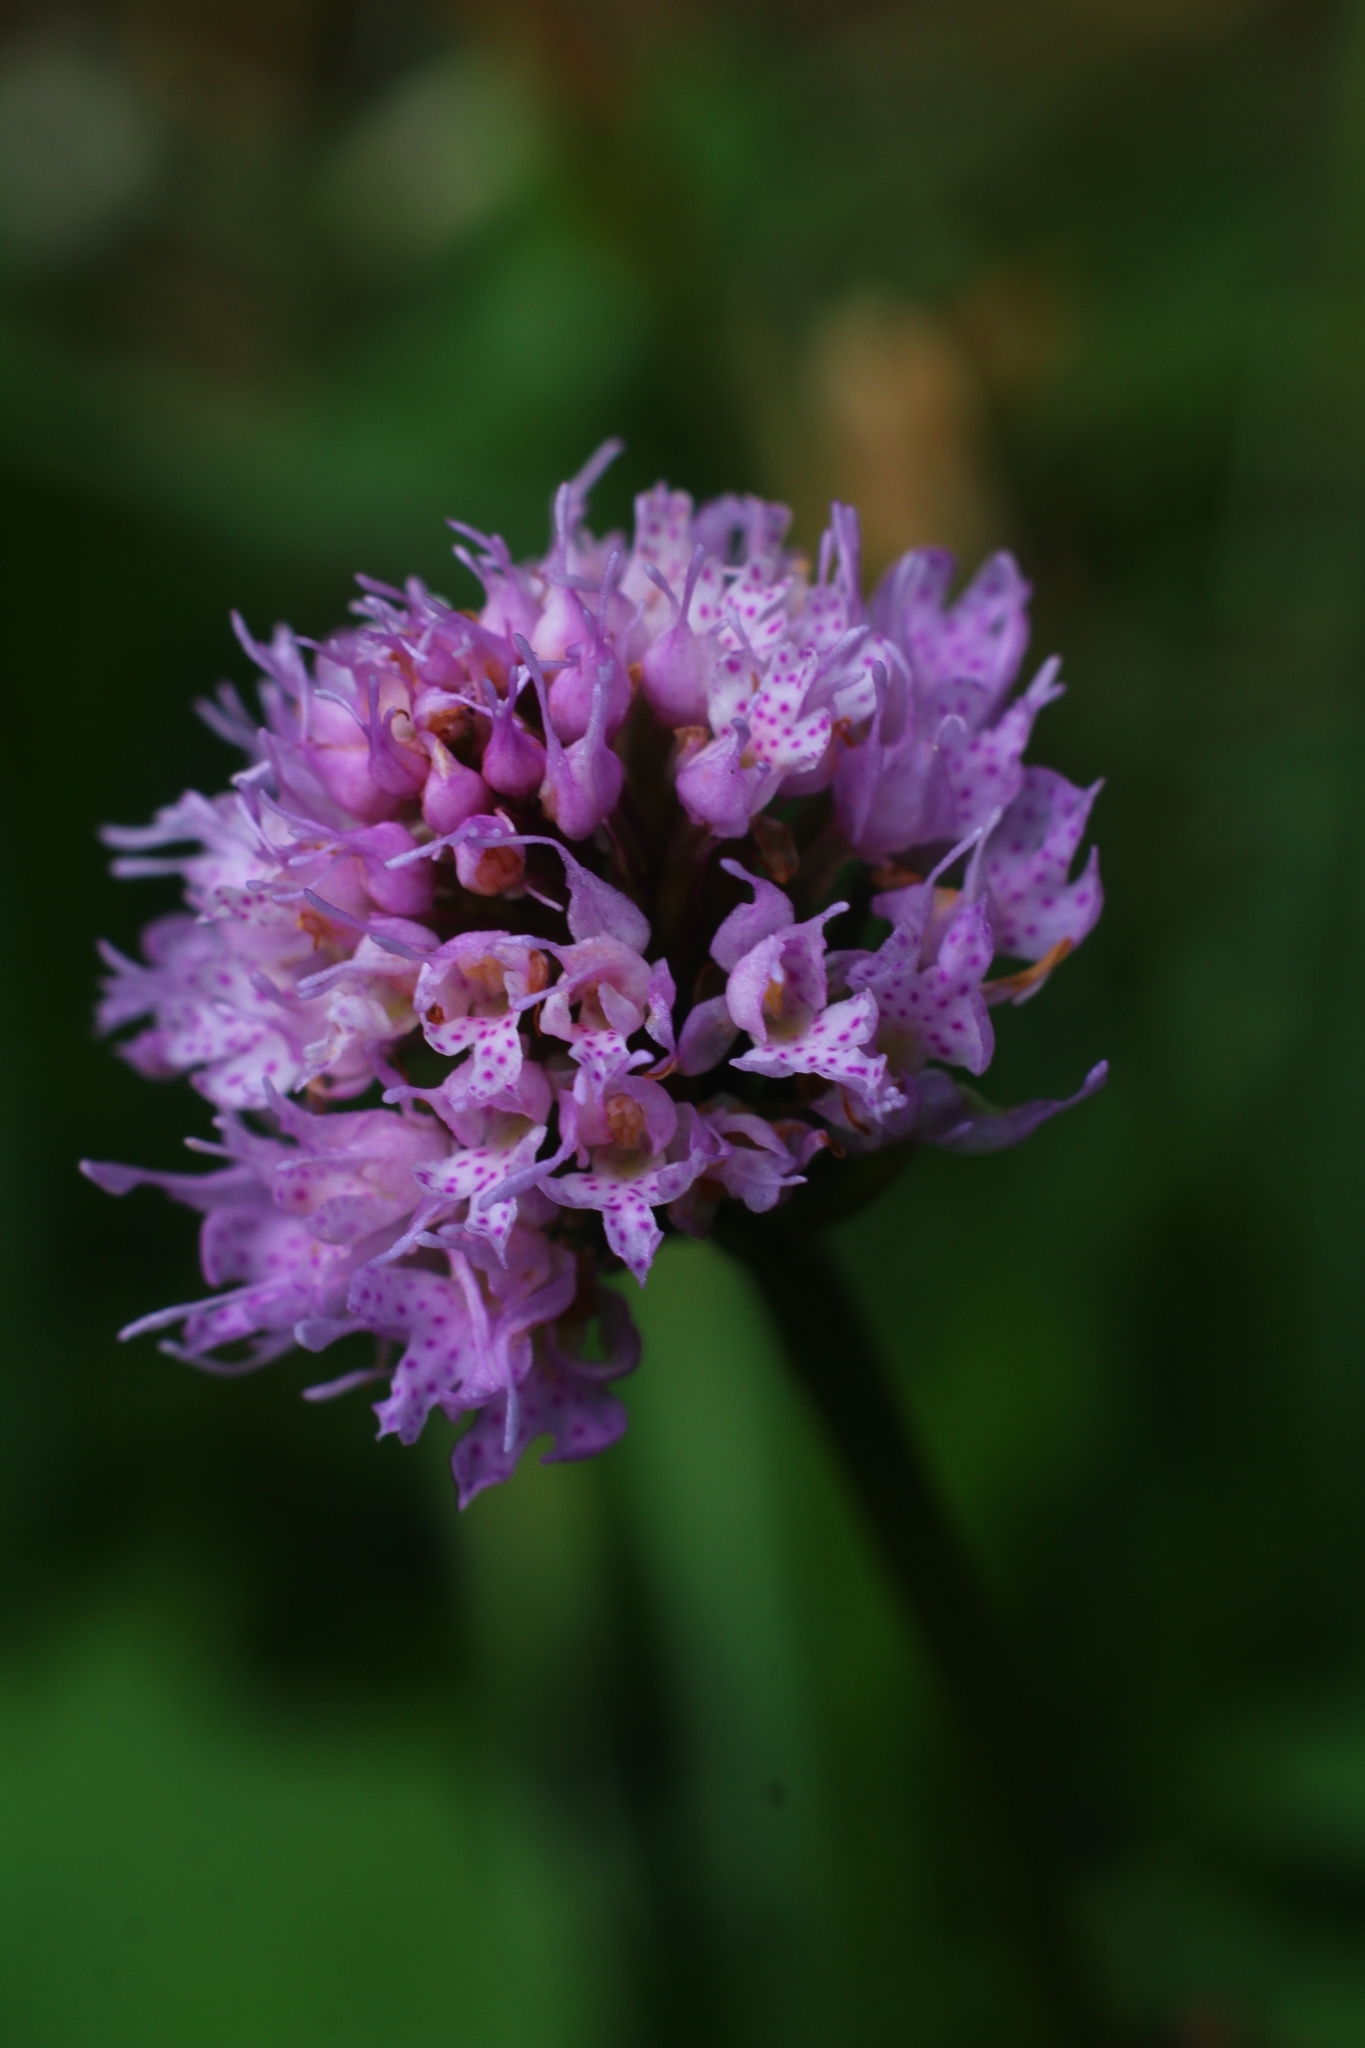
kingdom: Plantae
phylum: Tracheophyta
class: Liliopsida
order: Asparagales
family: Orchidaceae
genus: Traunsteinera
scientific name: Traunsteinera globosa
